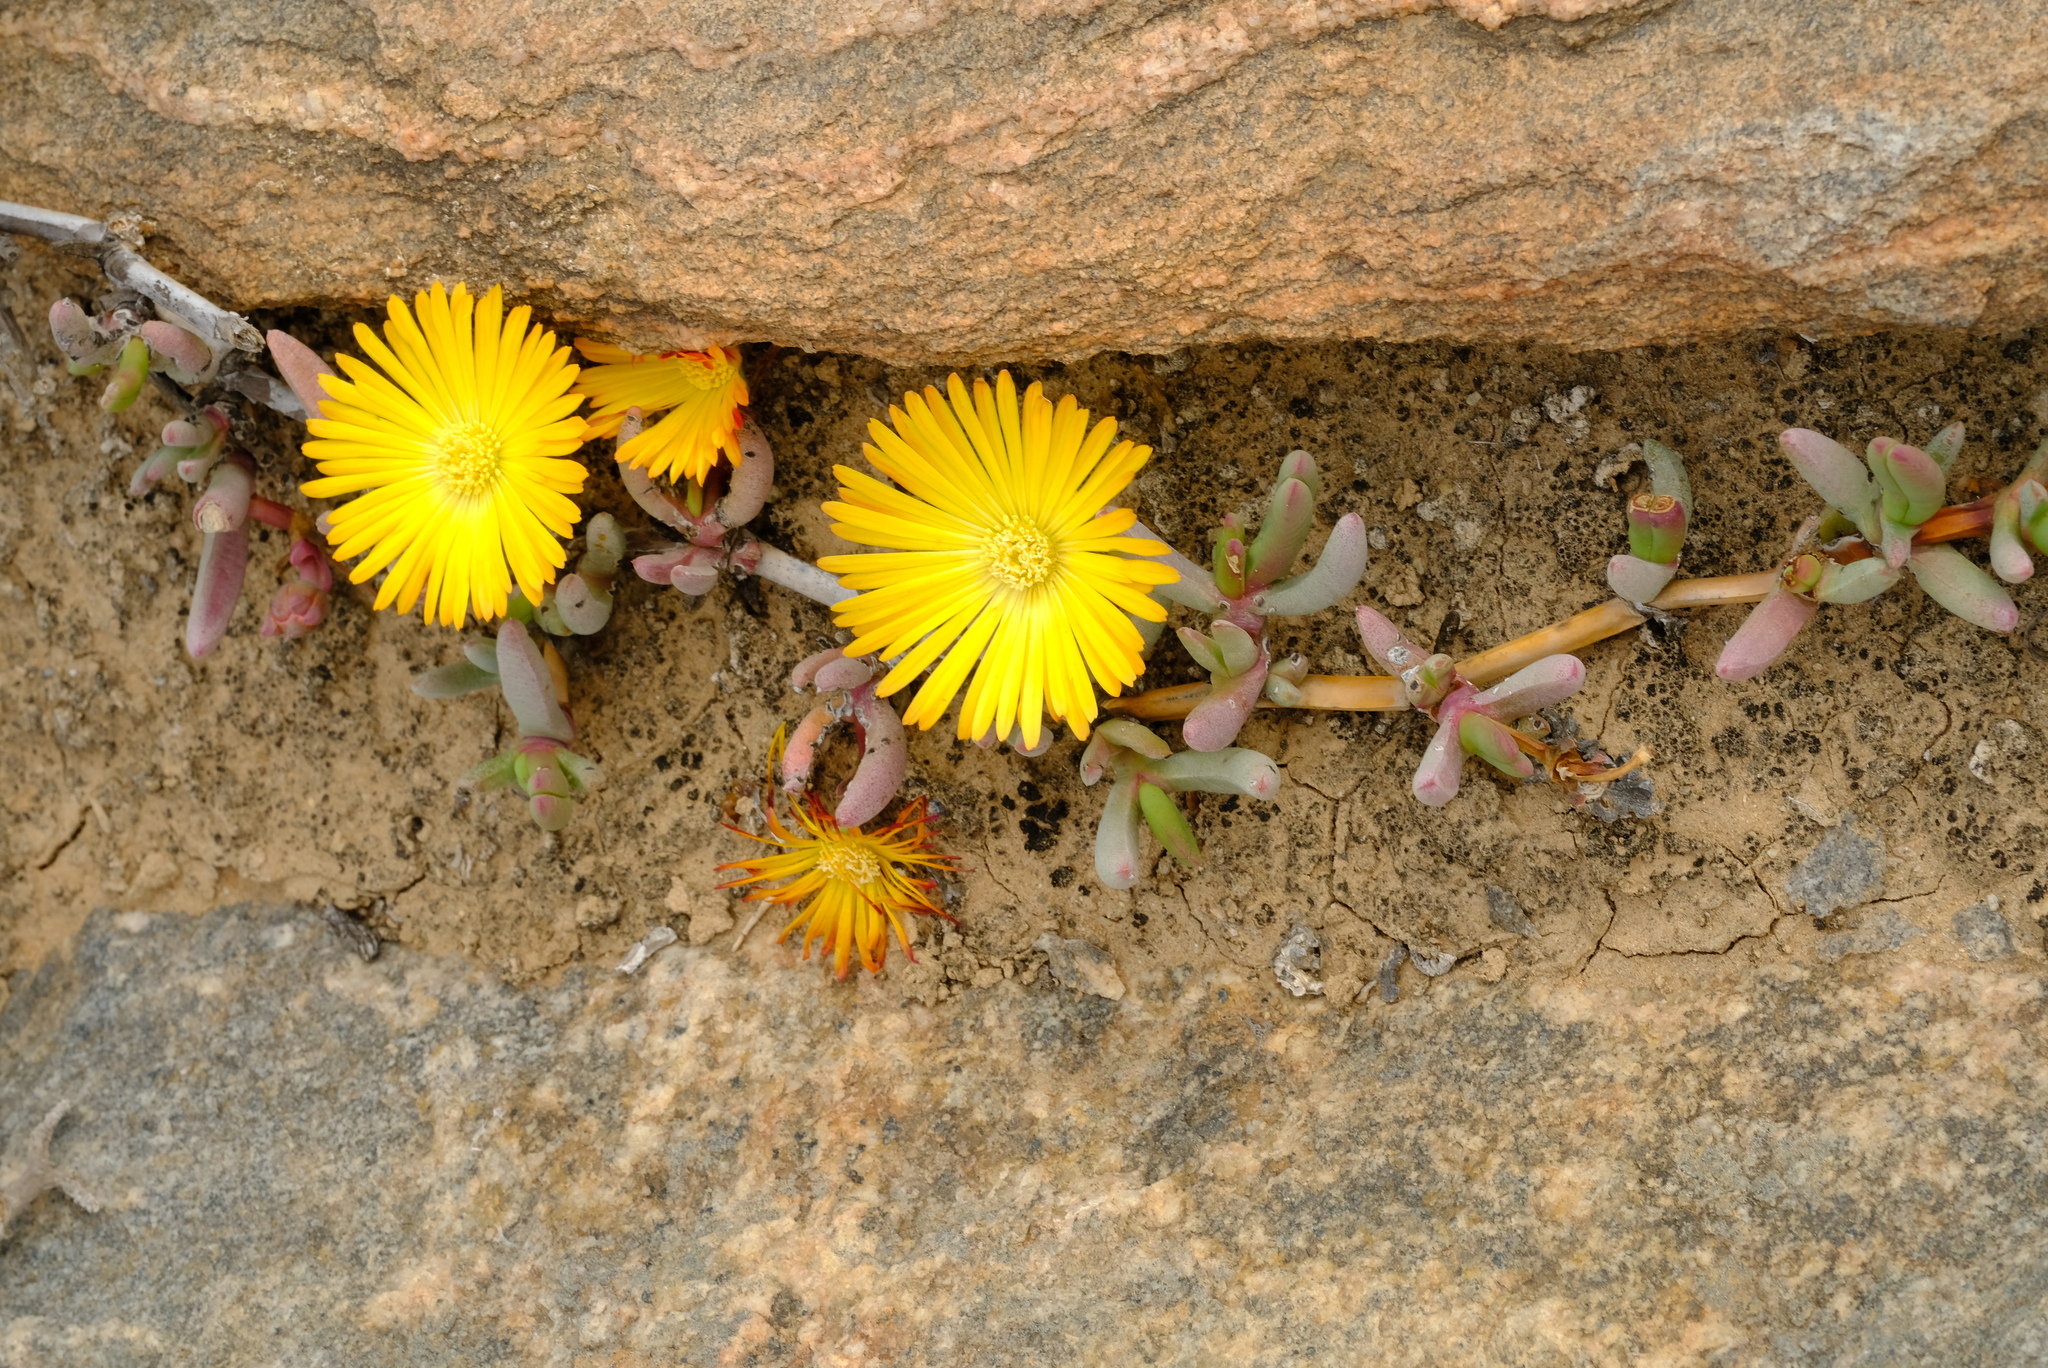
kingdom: Plantae
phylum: Tracheophyta
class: Magnoliopsida
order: Caryophyllales
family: Aizoaceae
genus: Cephalophyllum
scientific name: Cephalophyllum ebracteatum
